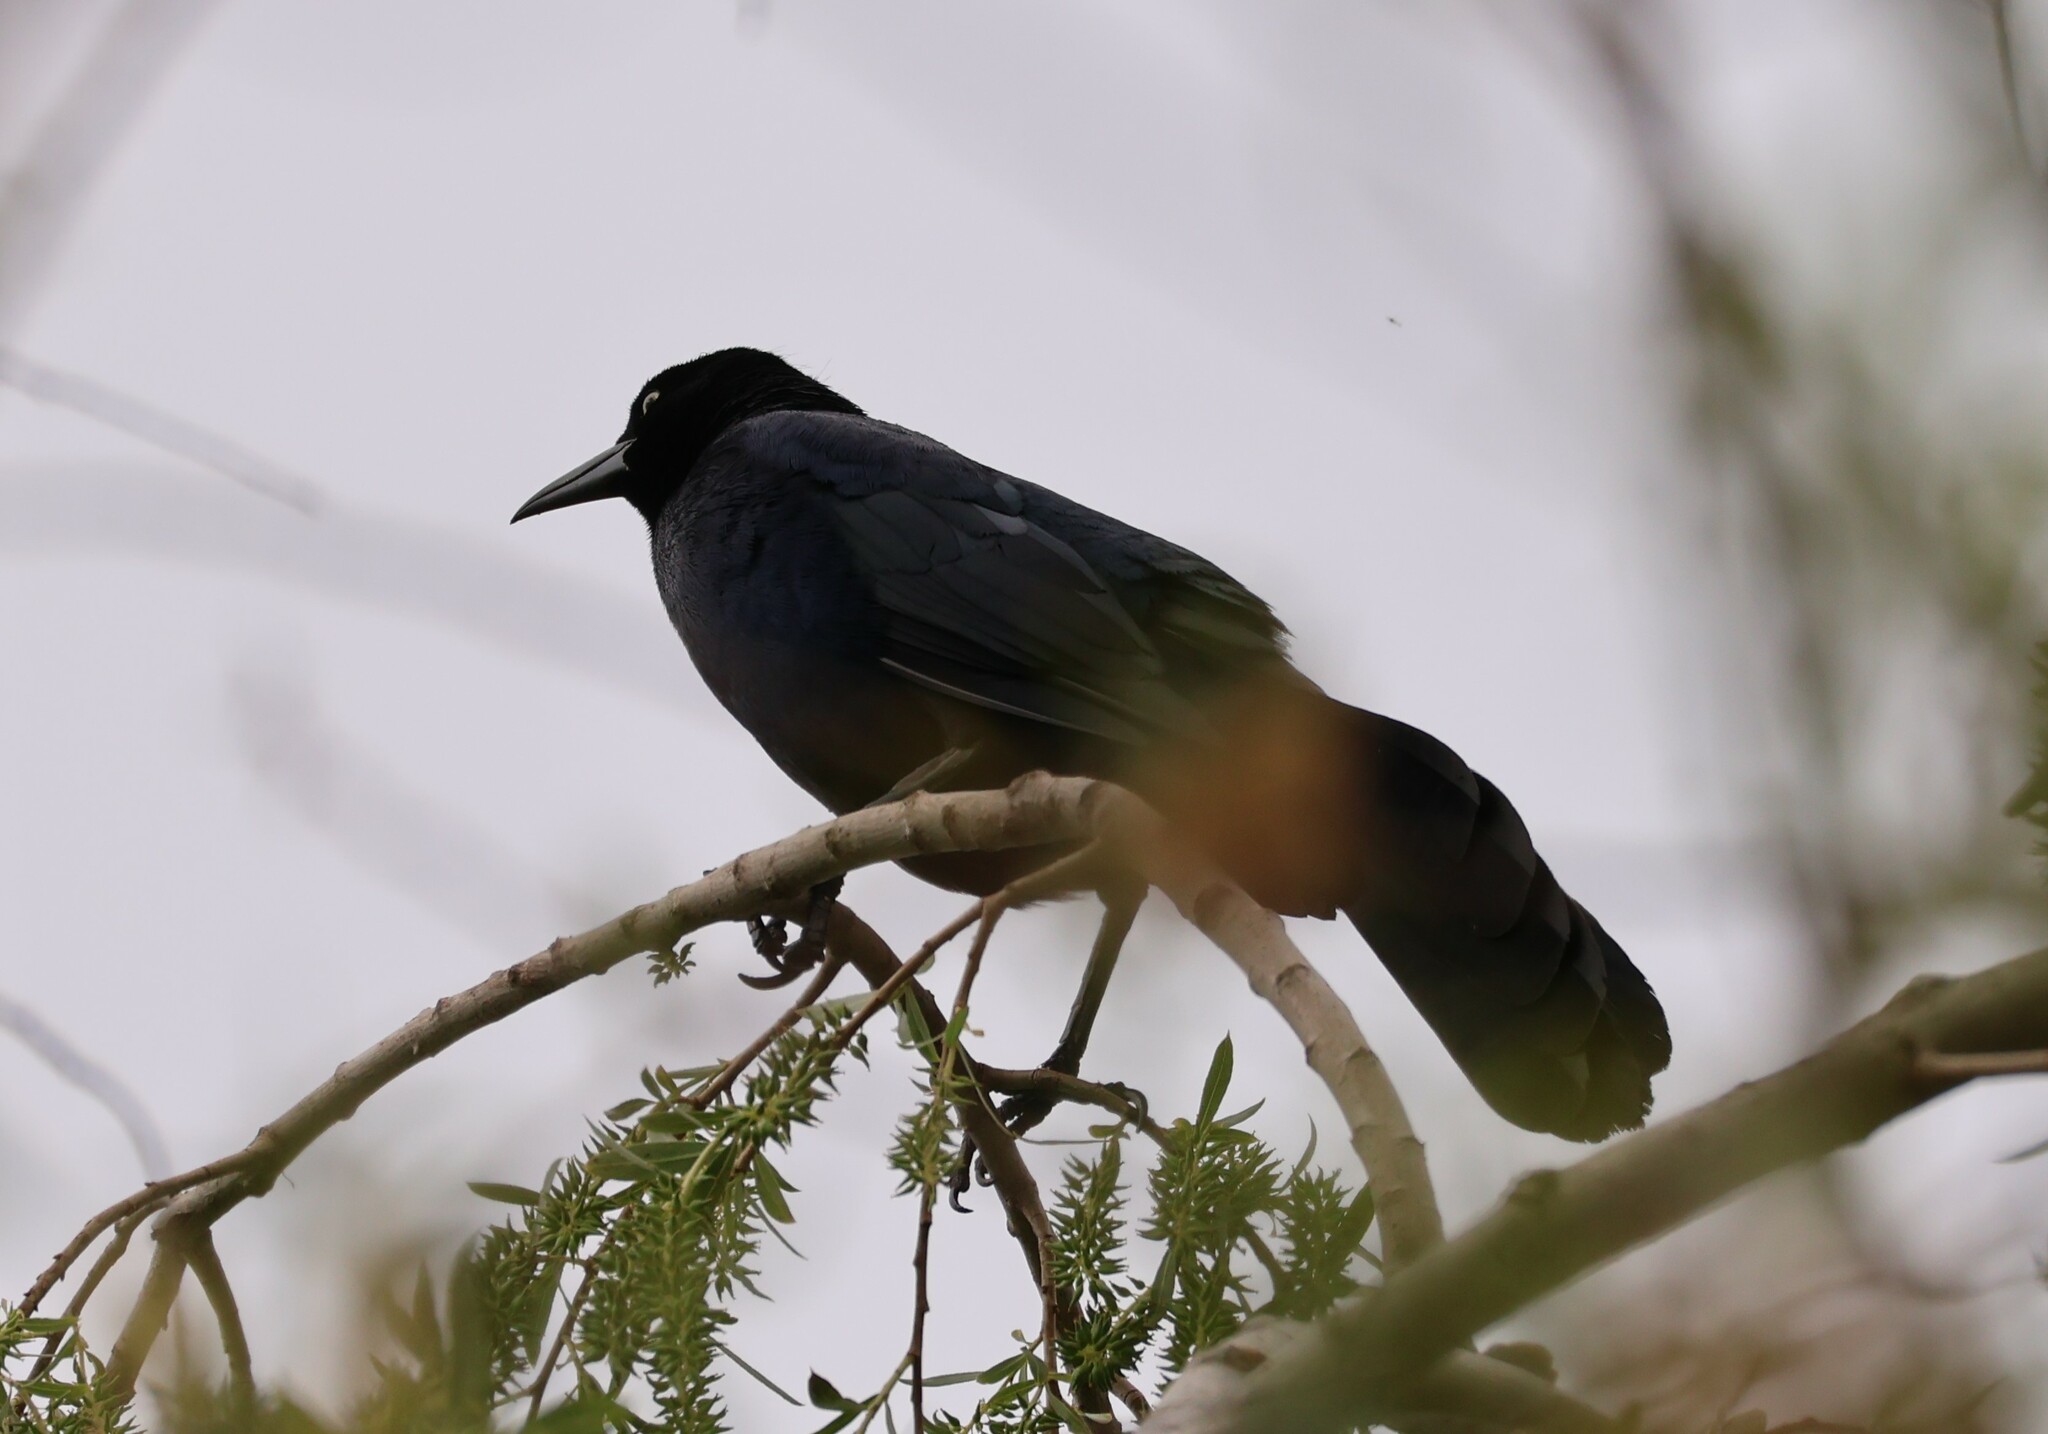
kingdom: Animalia
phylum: Chordata
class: Aves
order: Passeriformes
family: Icteridae
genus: Quiscalus
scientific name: Quiscalus mexicanus
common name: Great-tailed grackle
